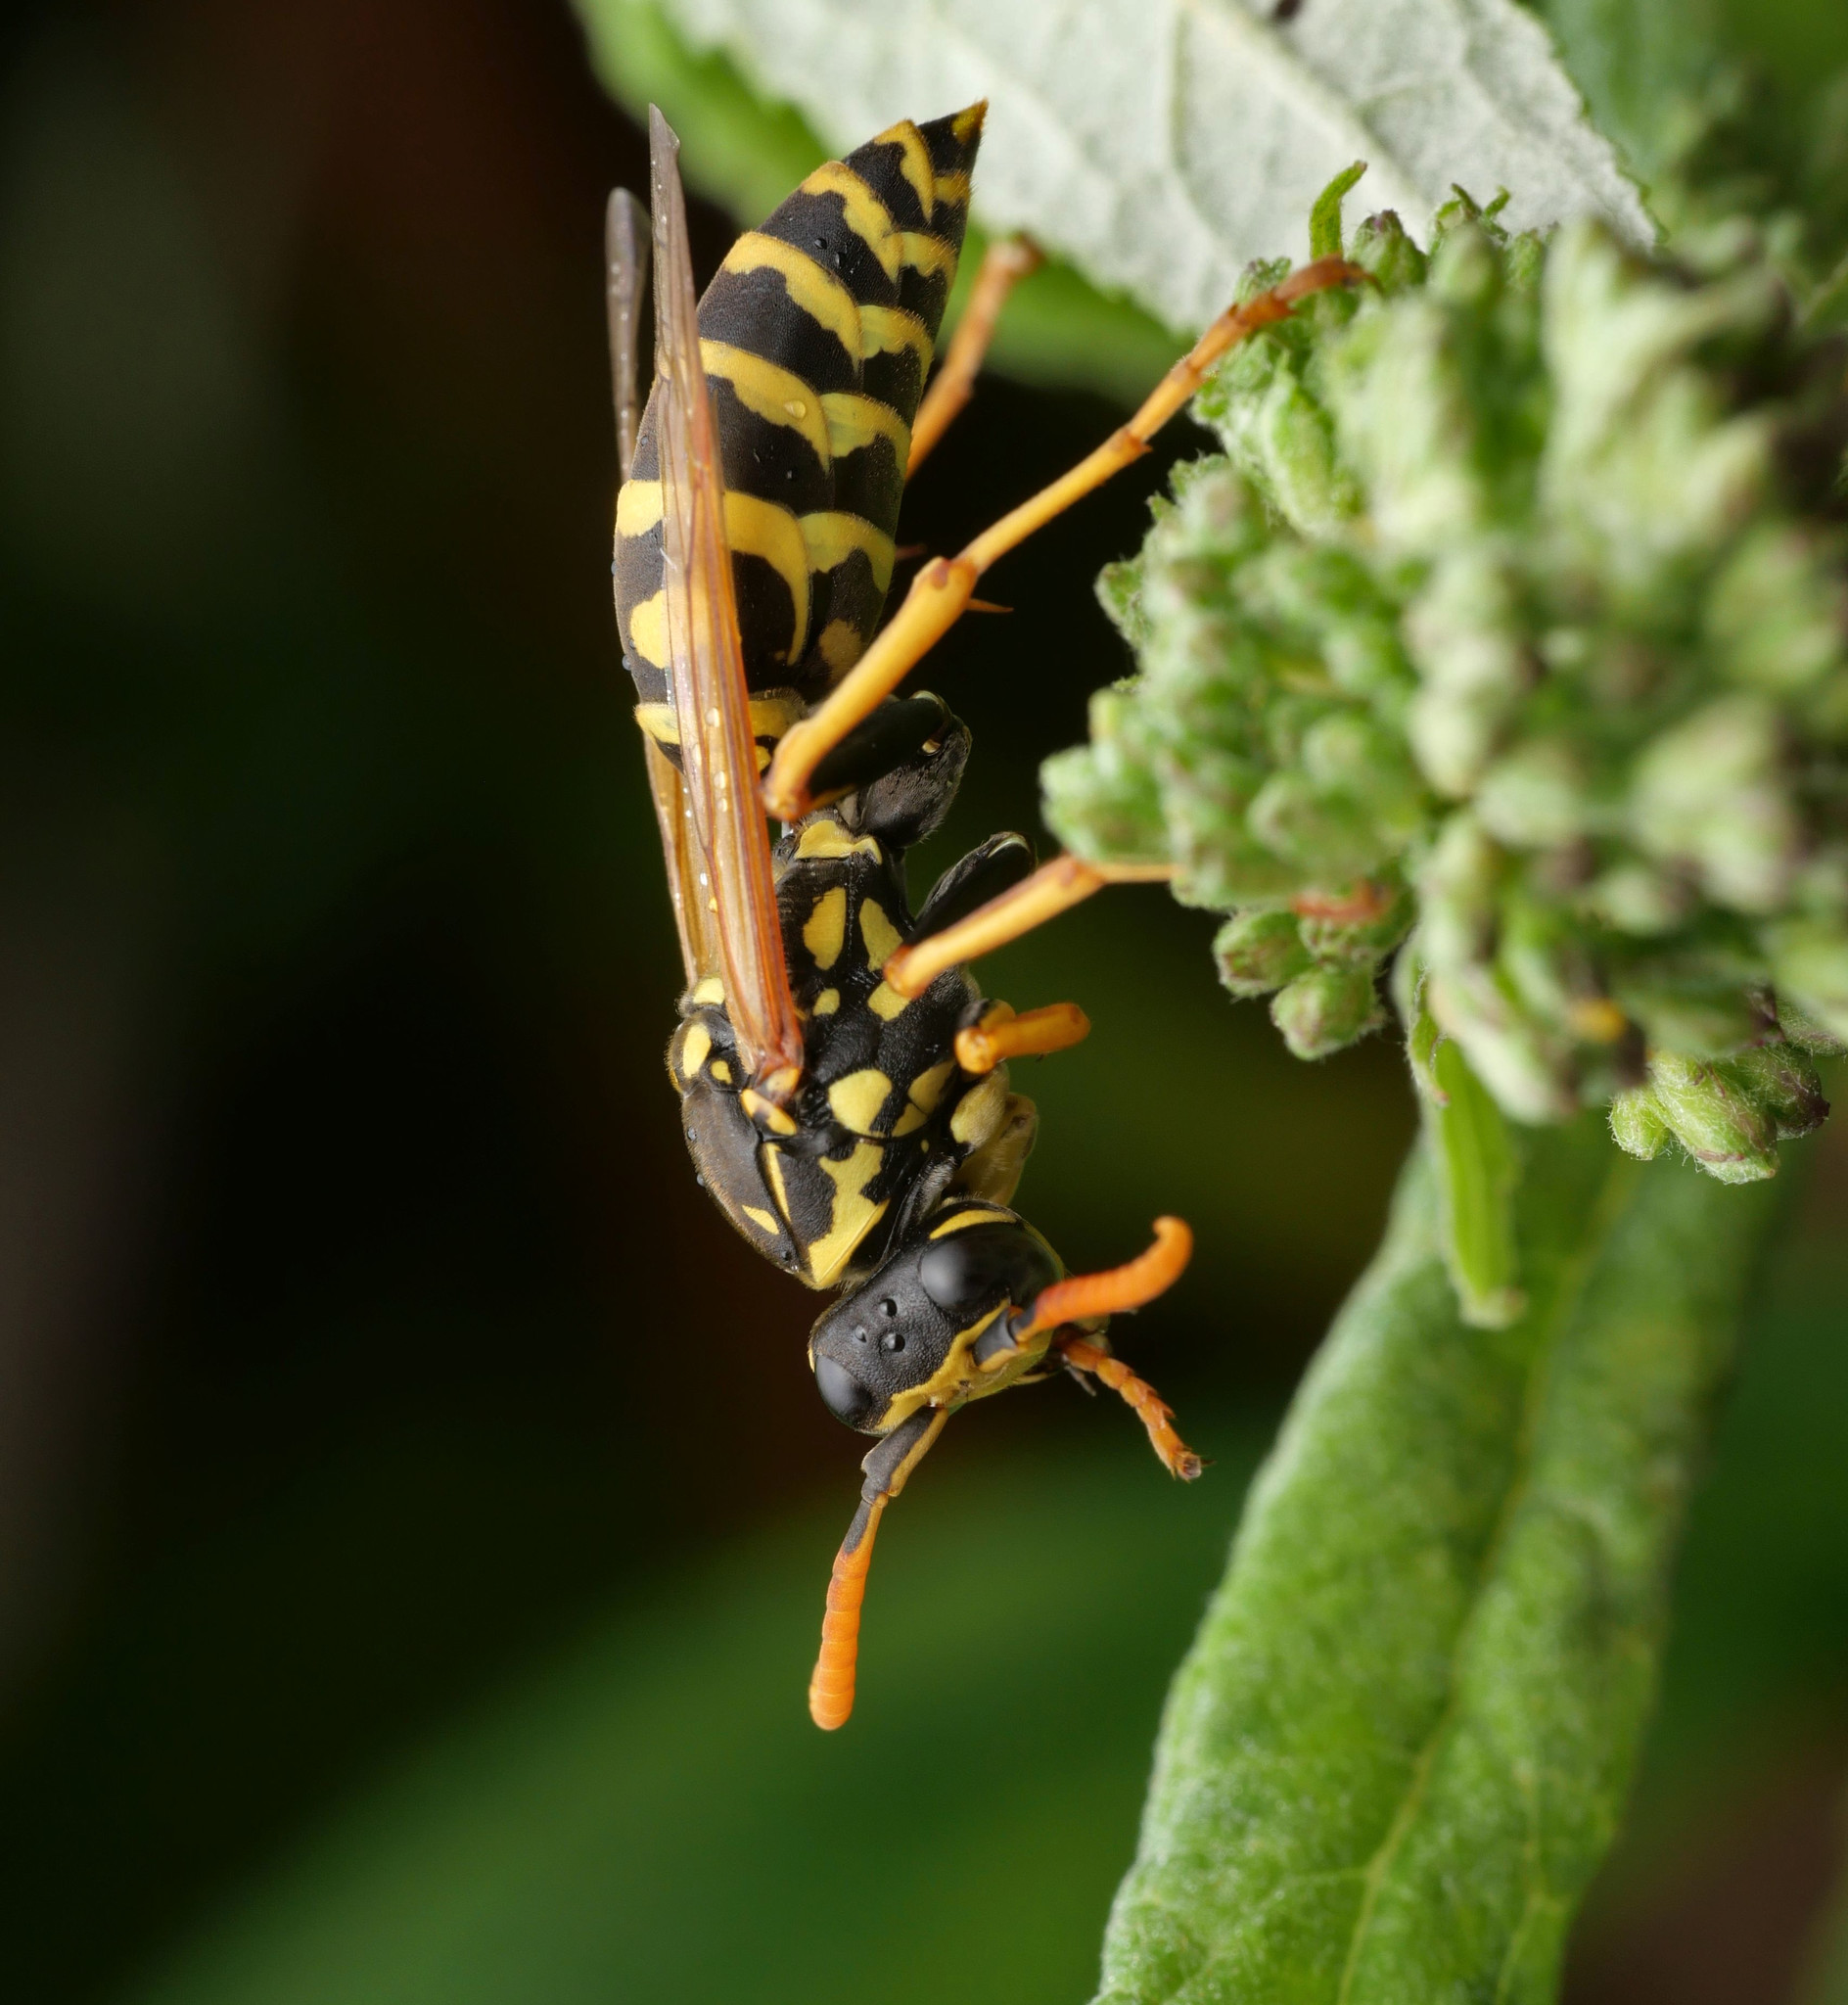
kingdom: Animalia
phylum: Arthropoda
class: Insecta
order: Hymenoptera
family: Eumenidae
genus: Polistes
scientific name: Polistes dominula
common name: Paper wasp
